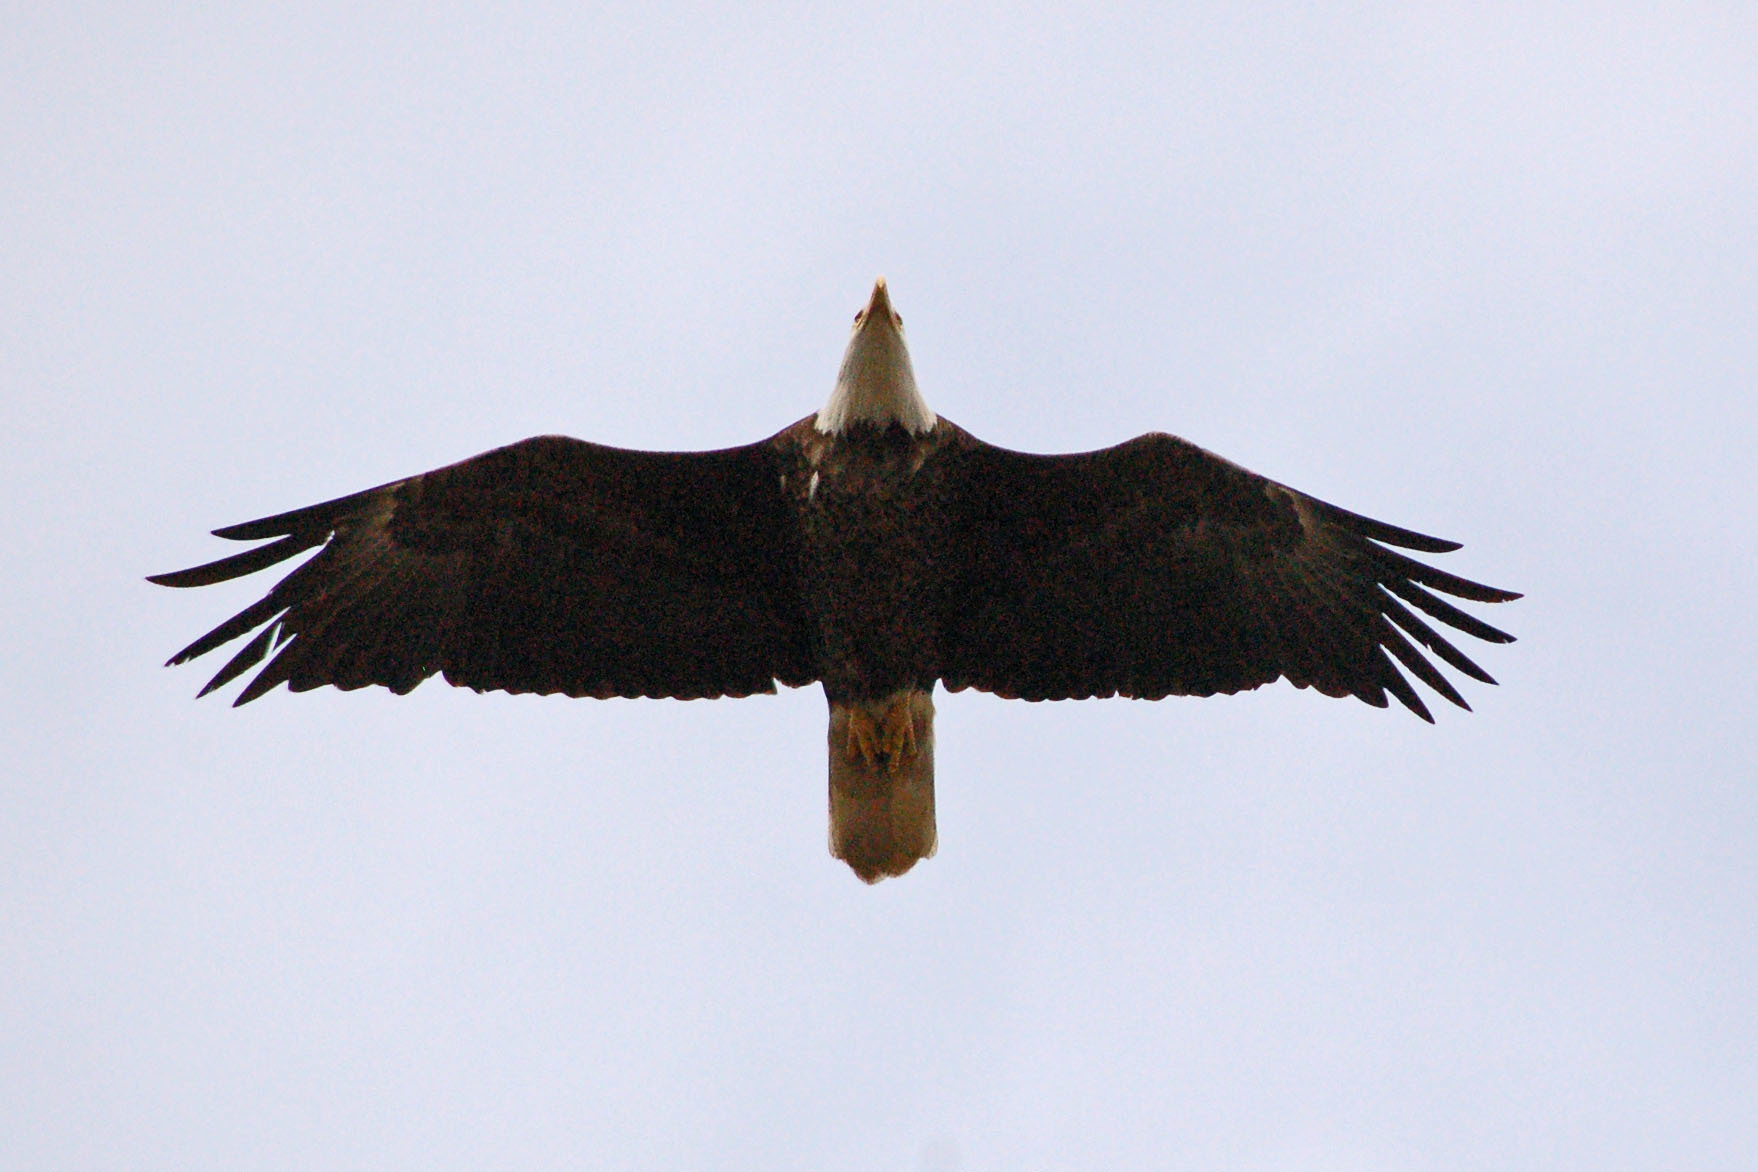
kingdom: Animalia
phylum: Chordata
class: Aves
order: Accipitriformes
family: Accipitridae
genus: Haliaeetus
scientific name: Haliaeetus leucocephalus
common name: Bald eagle
